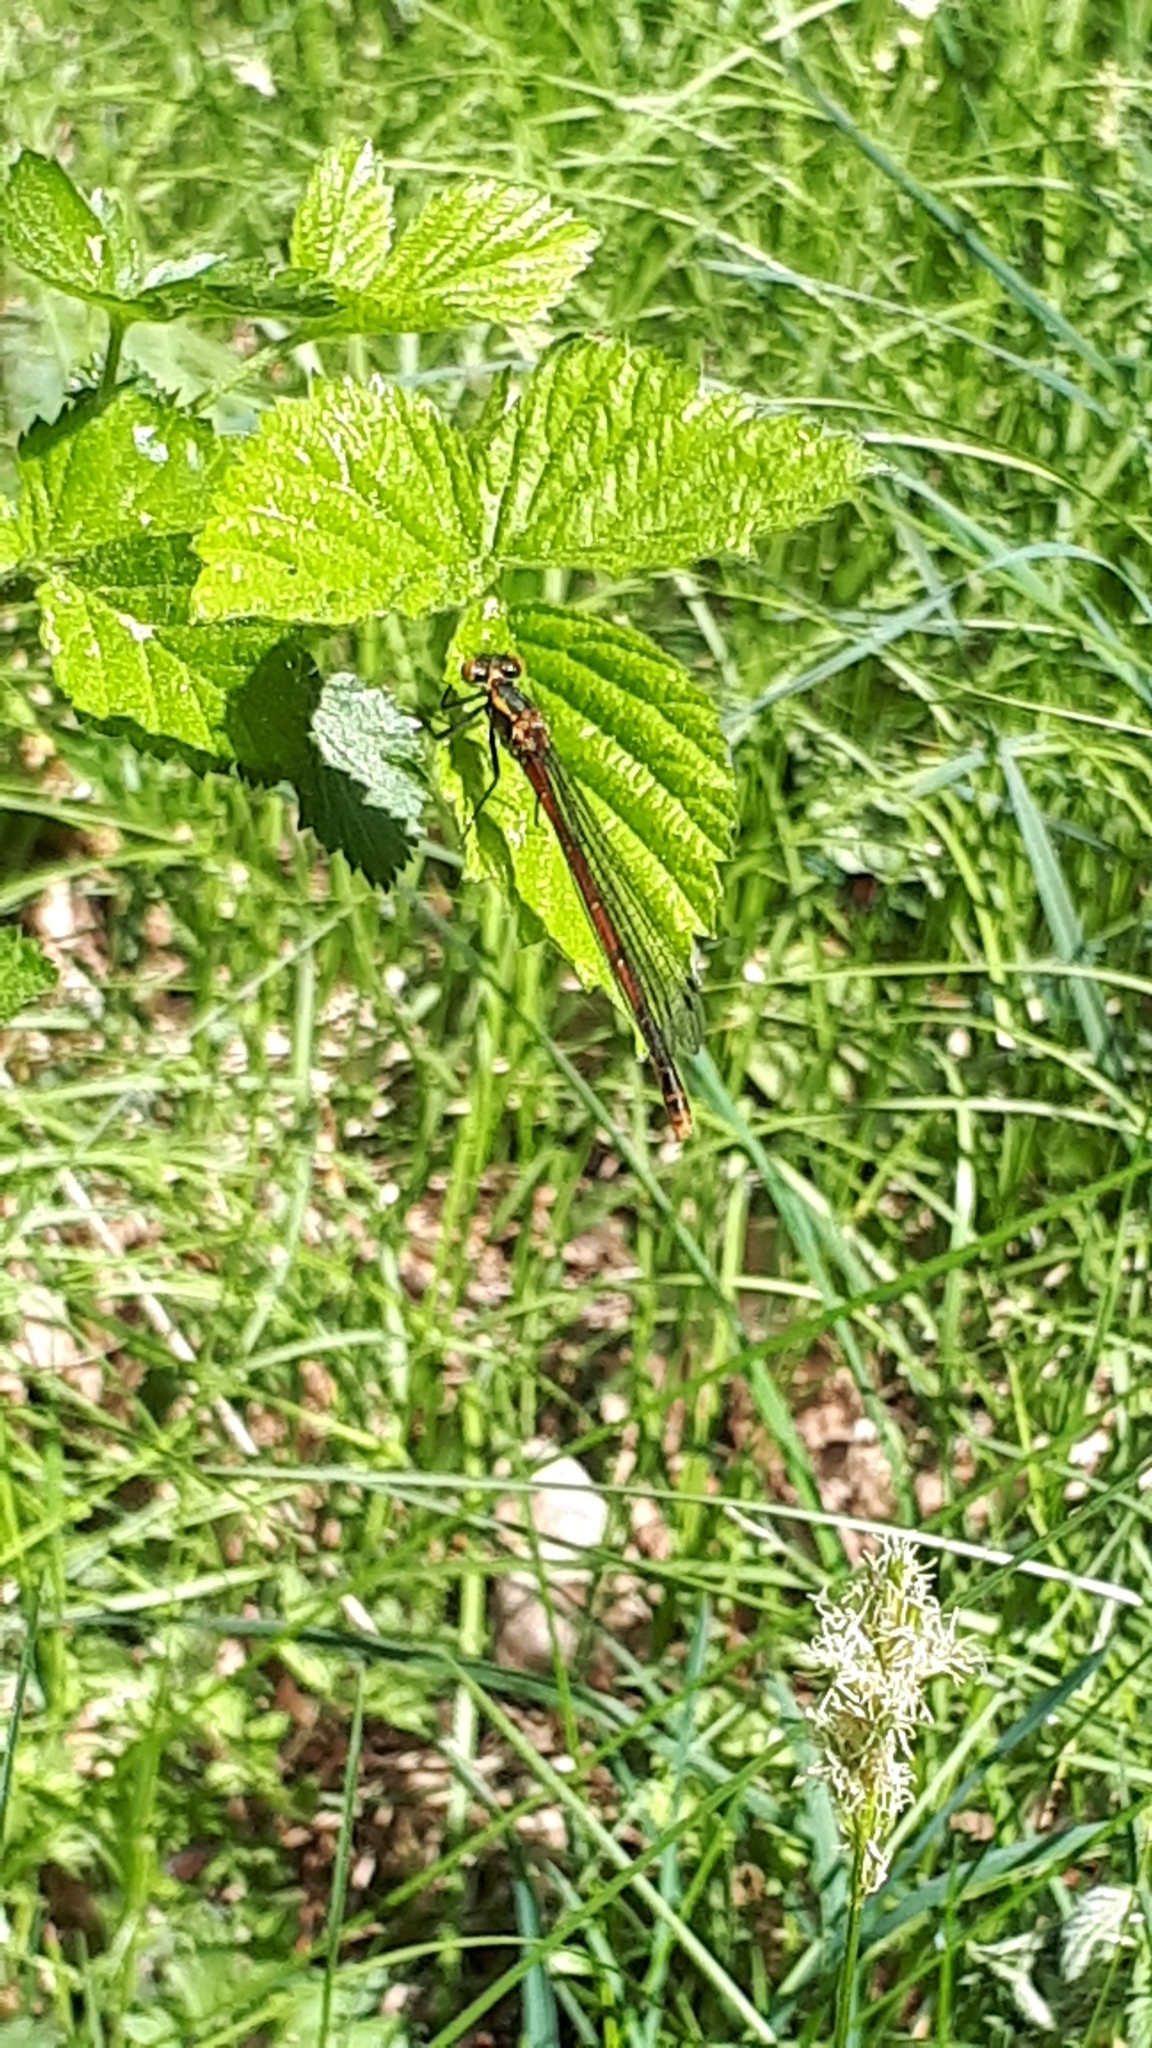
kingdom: Animalia
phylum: Arthropoda
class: Insecta
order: Odonata
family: Coenagrionidae
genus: Pyrrhosoma
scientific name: Pyrrhosoma nymphula
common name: Large red damsel
